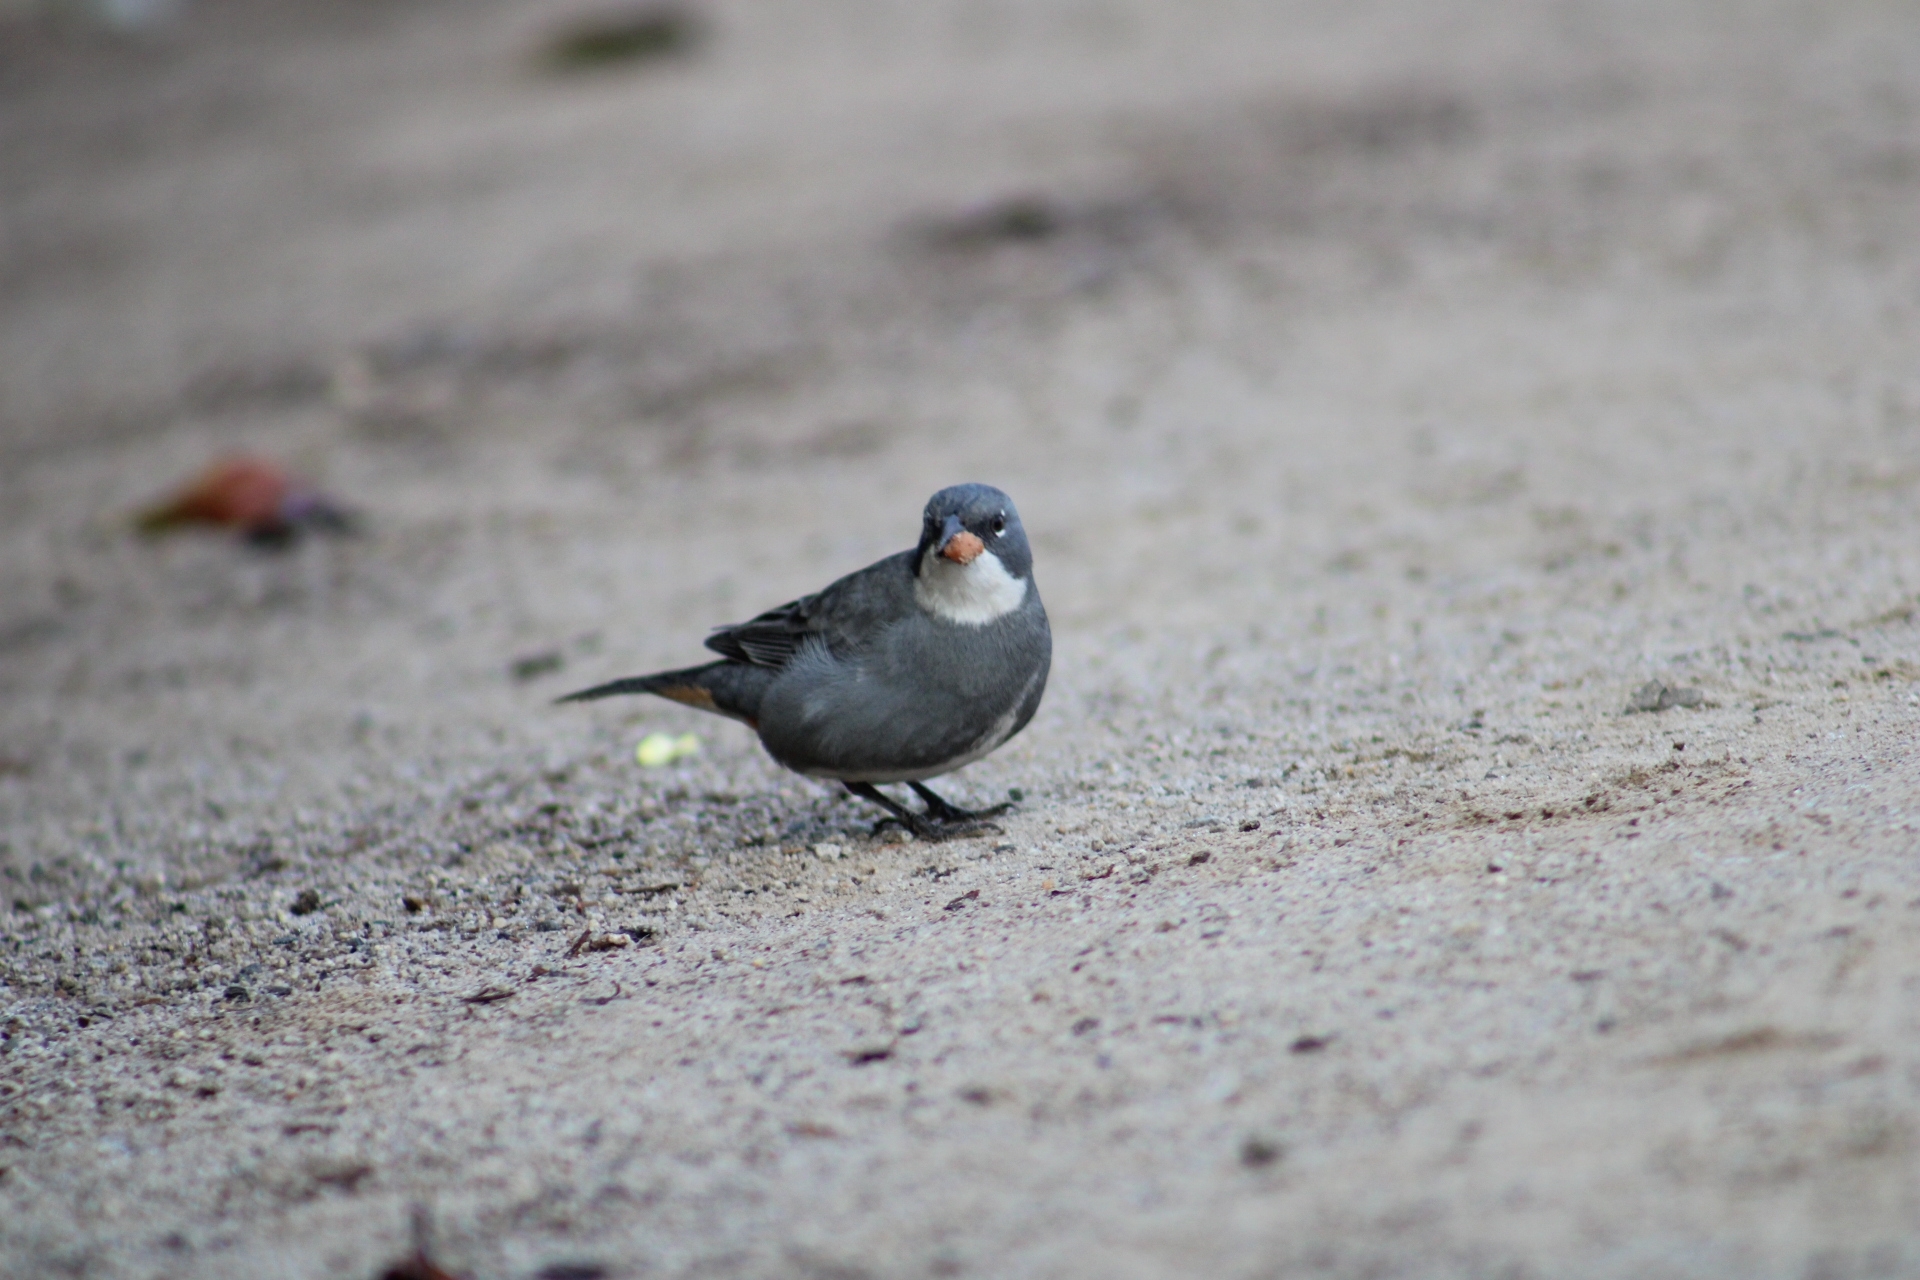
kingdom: Animalia
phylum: Chordata
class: Aves
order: Passeriformes
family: Thraupidae
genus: Diuca
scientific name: Diuca diuca
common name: Common diuca finch
